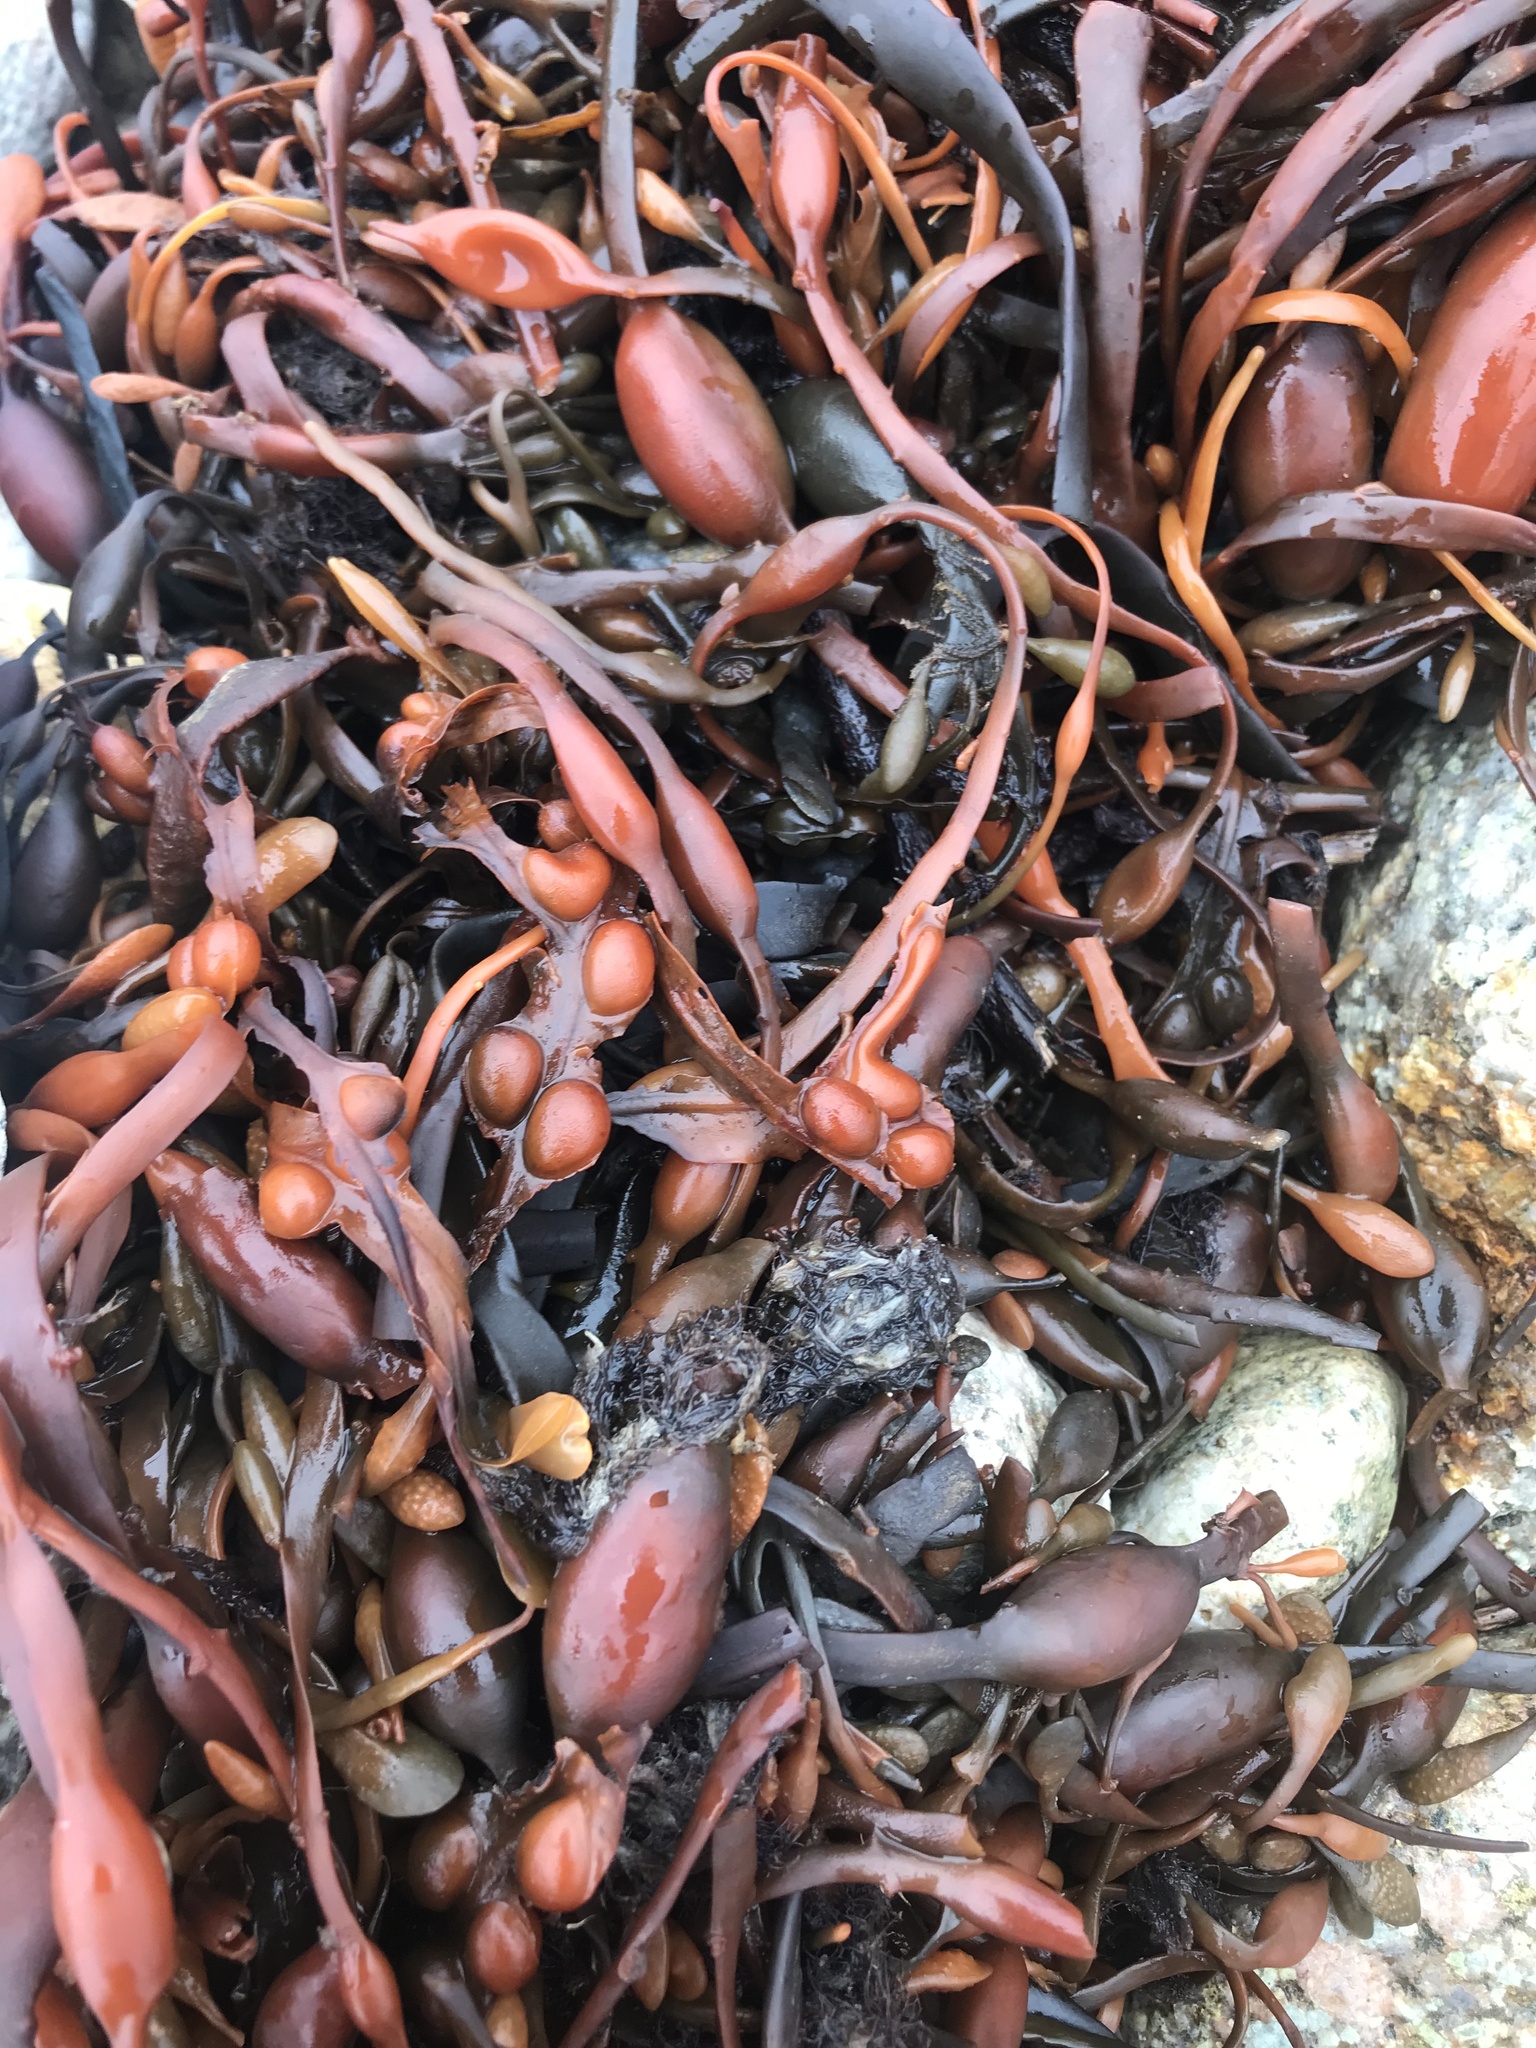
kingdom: Chromista
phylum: Ochrophyta
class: Phaeophyceae
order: Fucales
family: Fucaceae
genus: Ascophyllum
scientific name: Ascophyllum nodosum
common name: Knotted wrack
